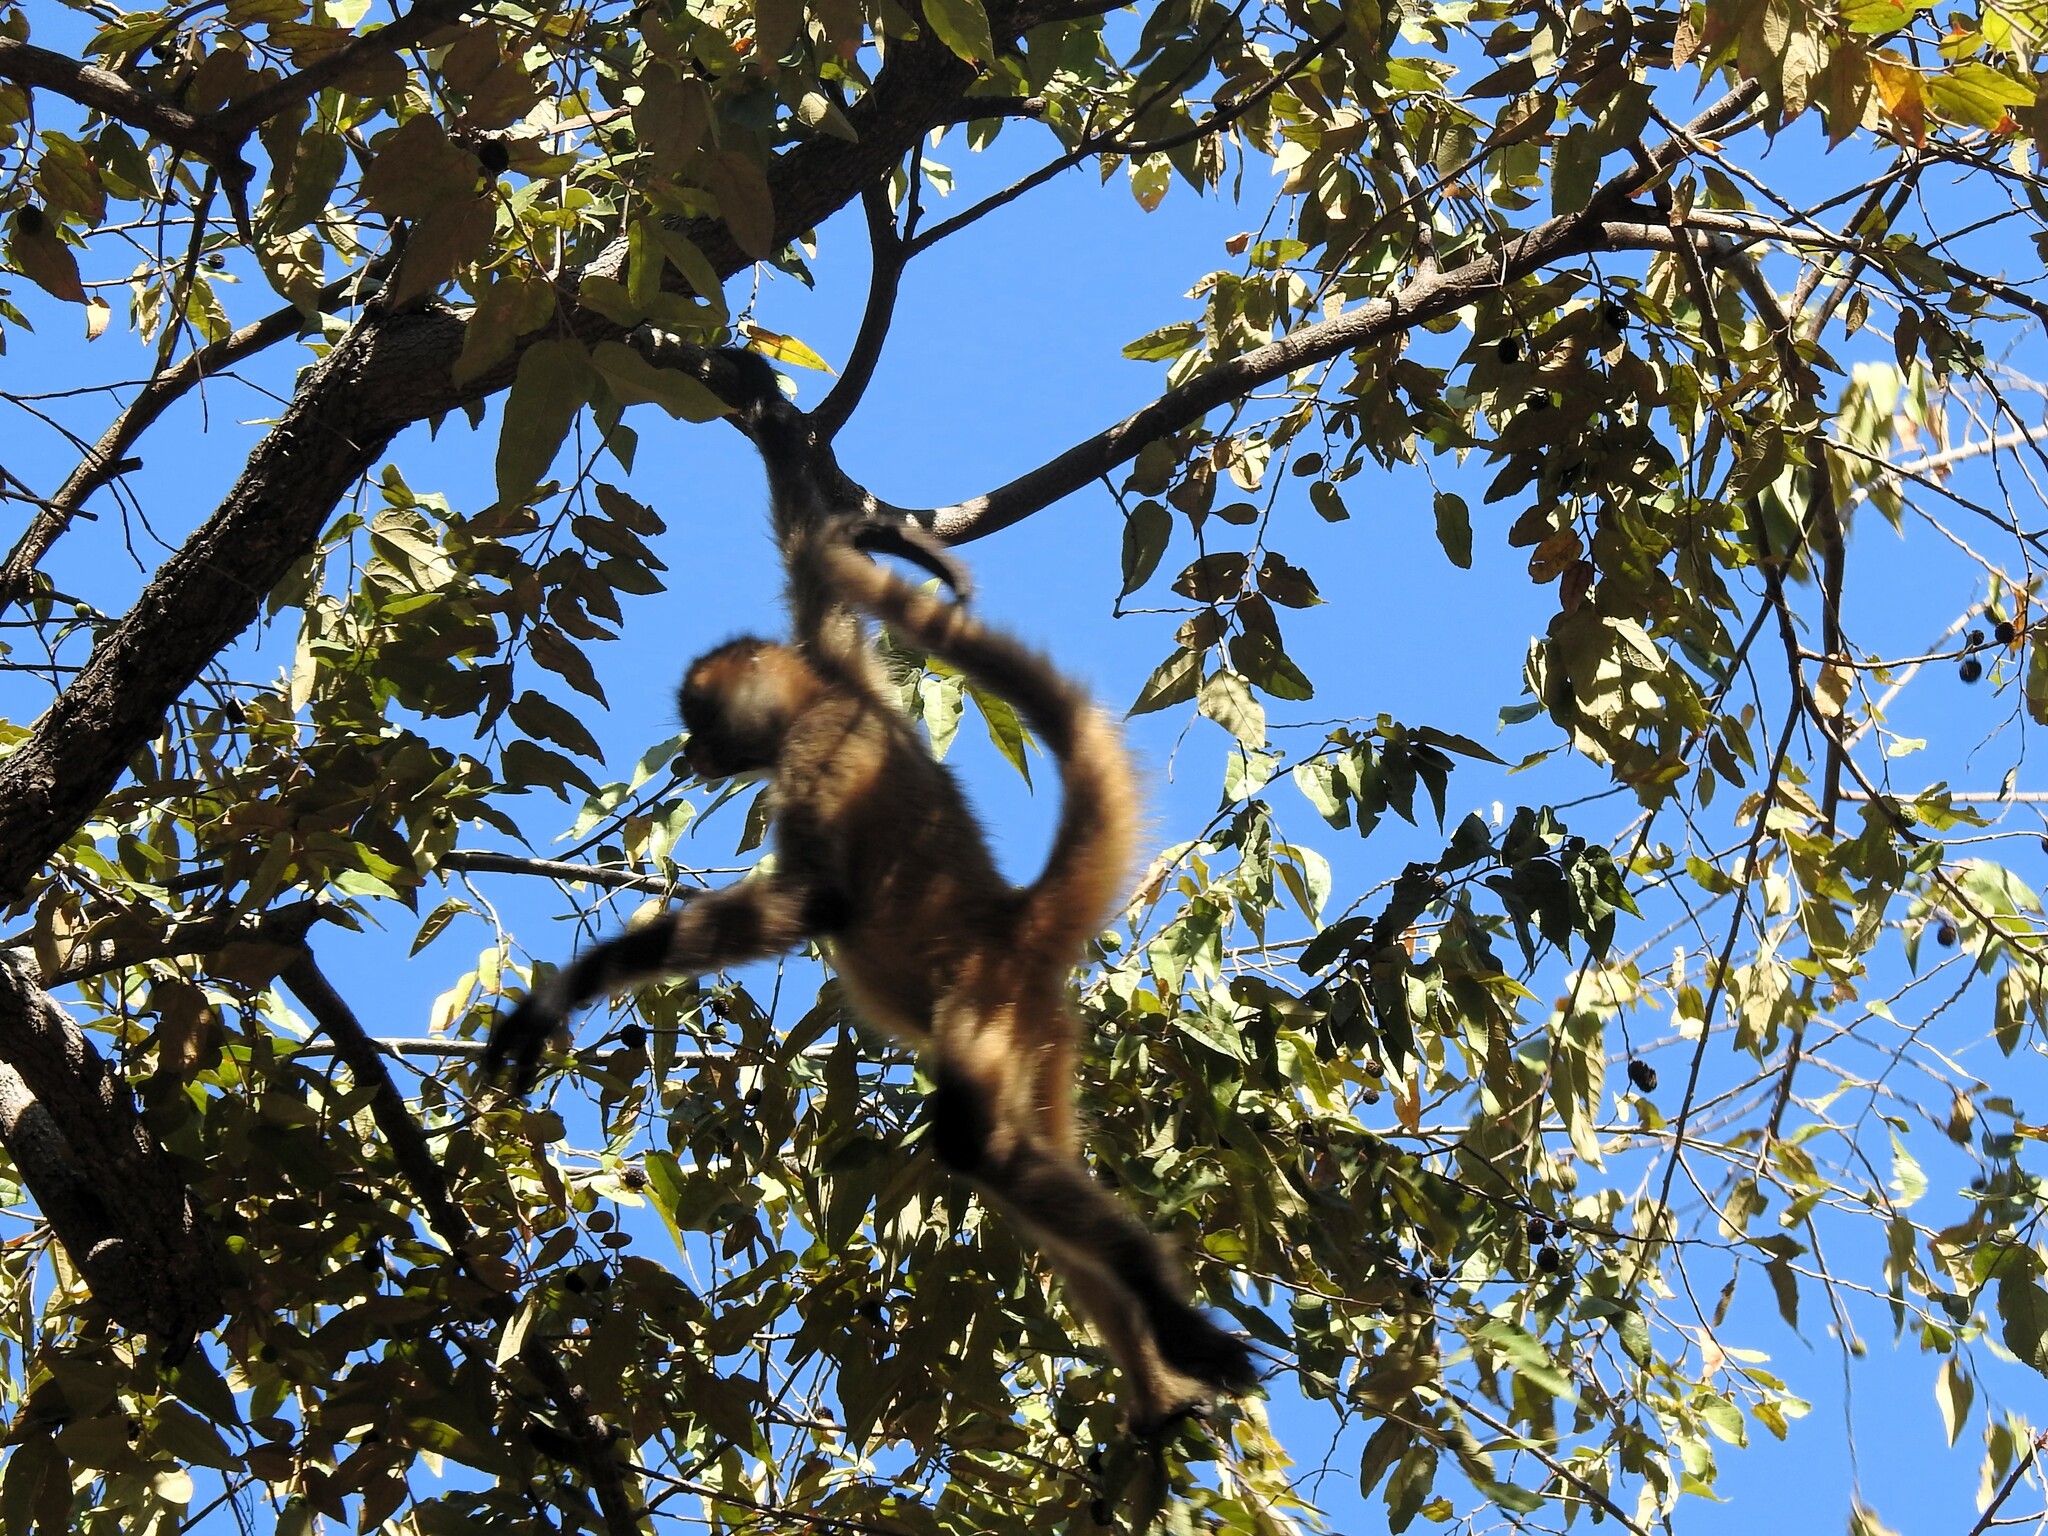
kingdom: Animalia
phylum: Chordata
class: Mammalia
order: Primates
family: Atelidae
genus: Ateles
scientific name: Ateles geoffroyi
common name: Black-handed spider monkey
